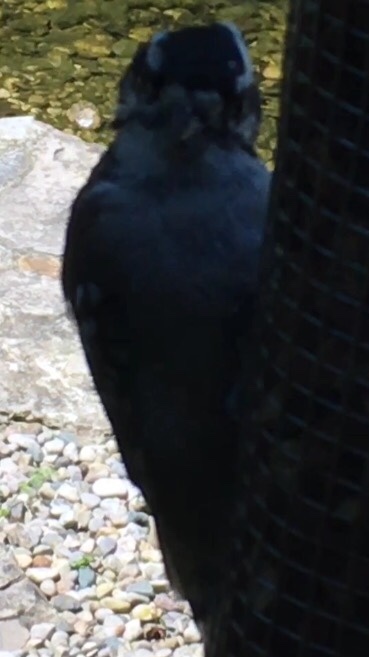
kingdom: Animalia
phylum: Chordata
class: Aves
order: Piciformes
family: Picidae
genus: Dryobates
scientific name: Dryobates pubescens
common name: Downy woodpecker
